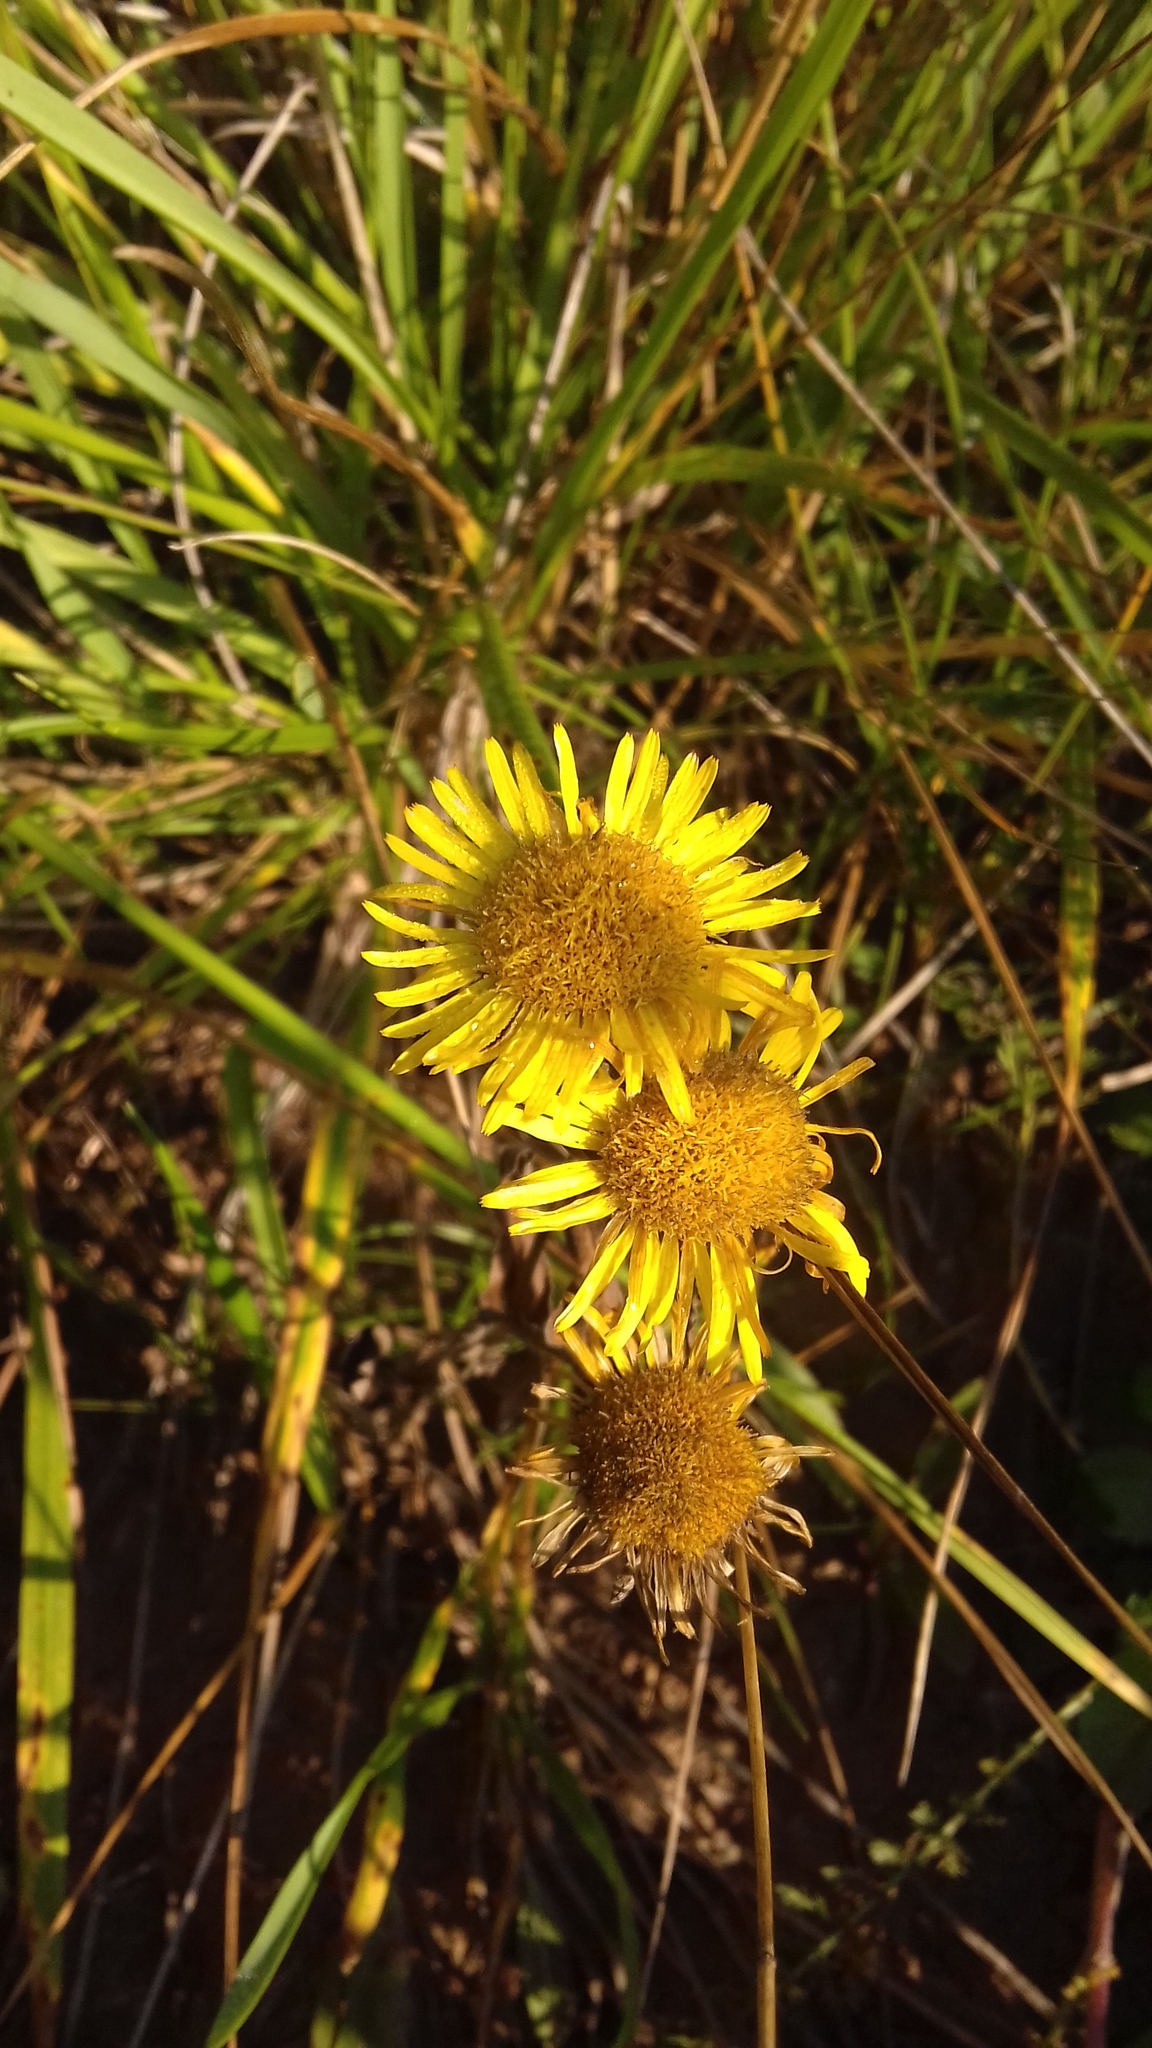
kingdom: Plantae
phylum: Tracheophyta
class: Magnoliopsida
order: Asterales
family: Asteraceae
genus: Pentanema
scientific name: Pentanema britannicum
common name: British elecampane
